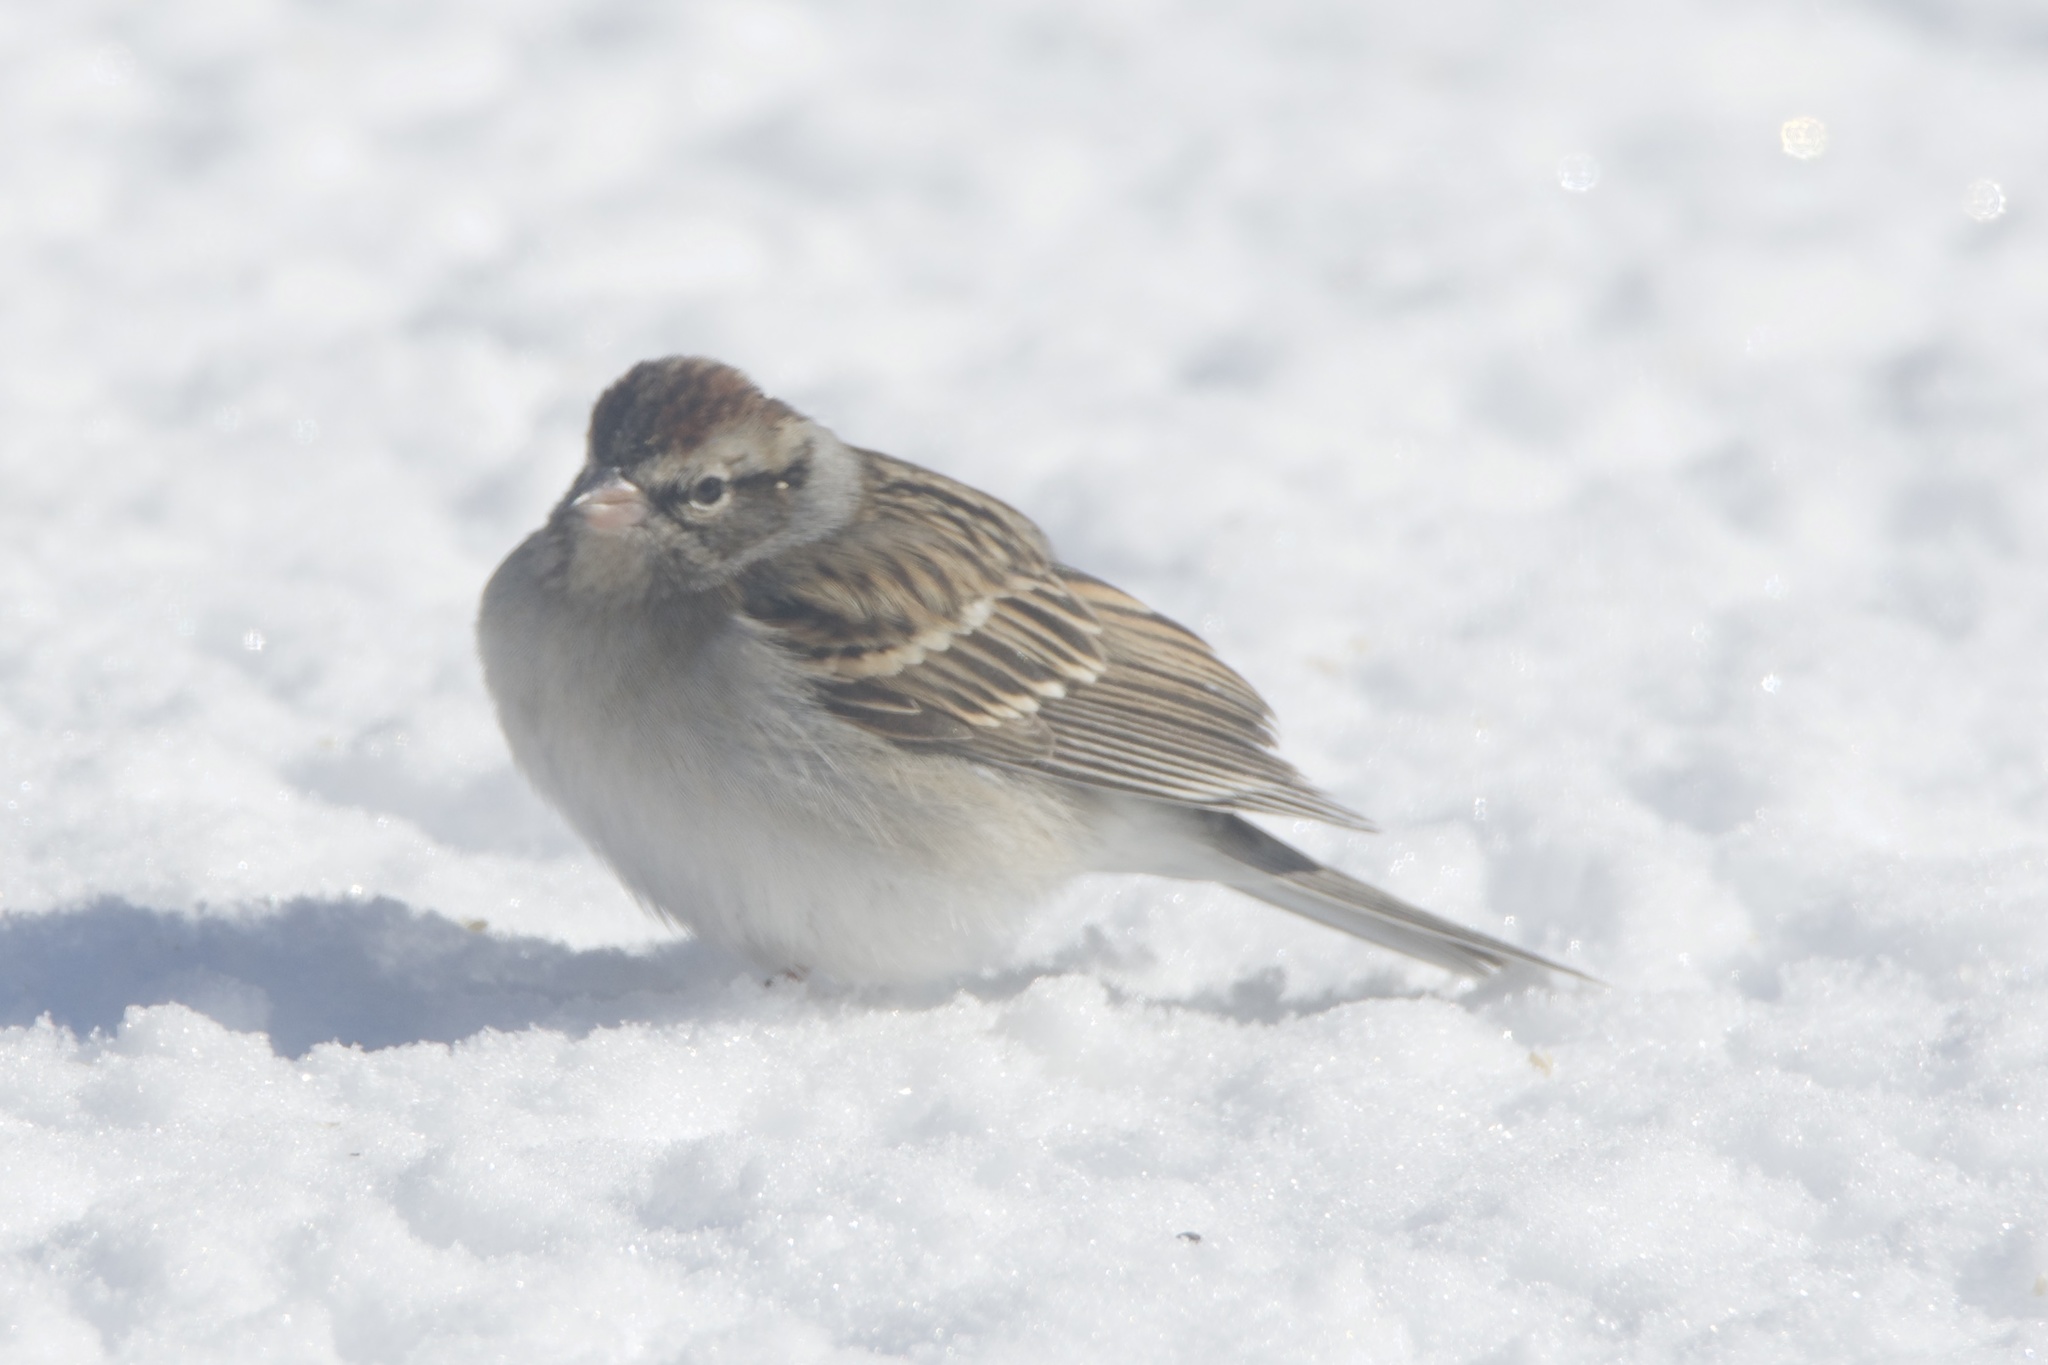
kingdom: Animalia
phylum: Chordata
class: Aves
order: Passeriformes
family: Passerellidae
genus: Spizella
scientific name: Spizella passerina
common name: Chipping sparrow
